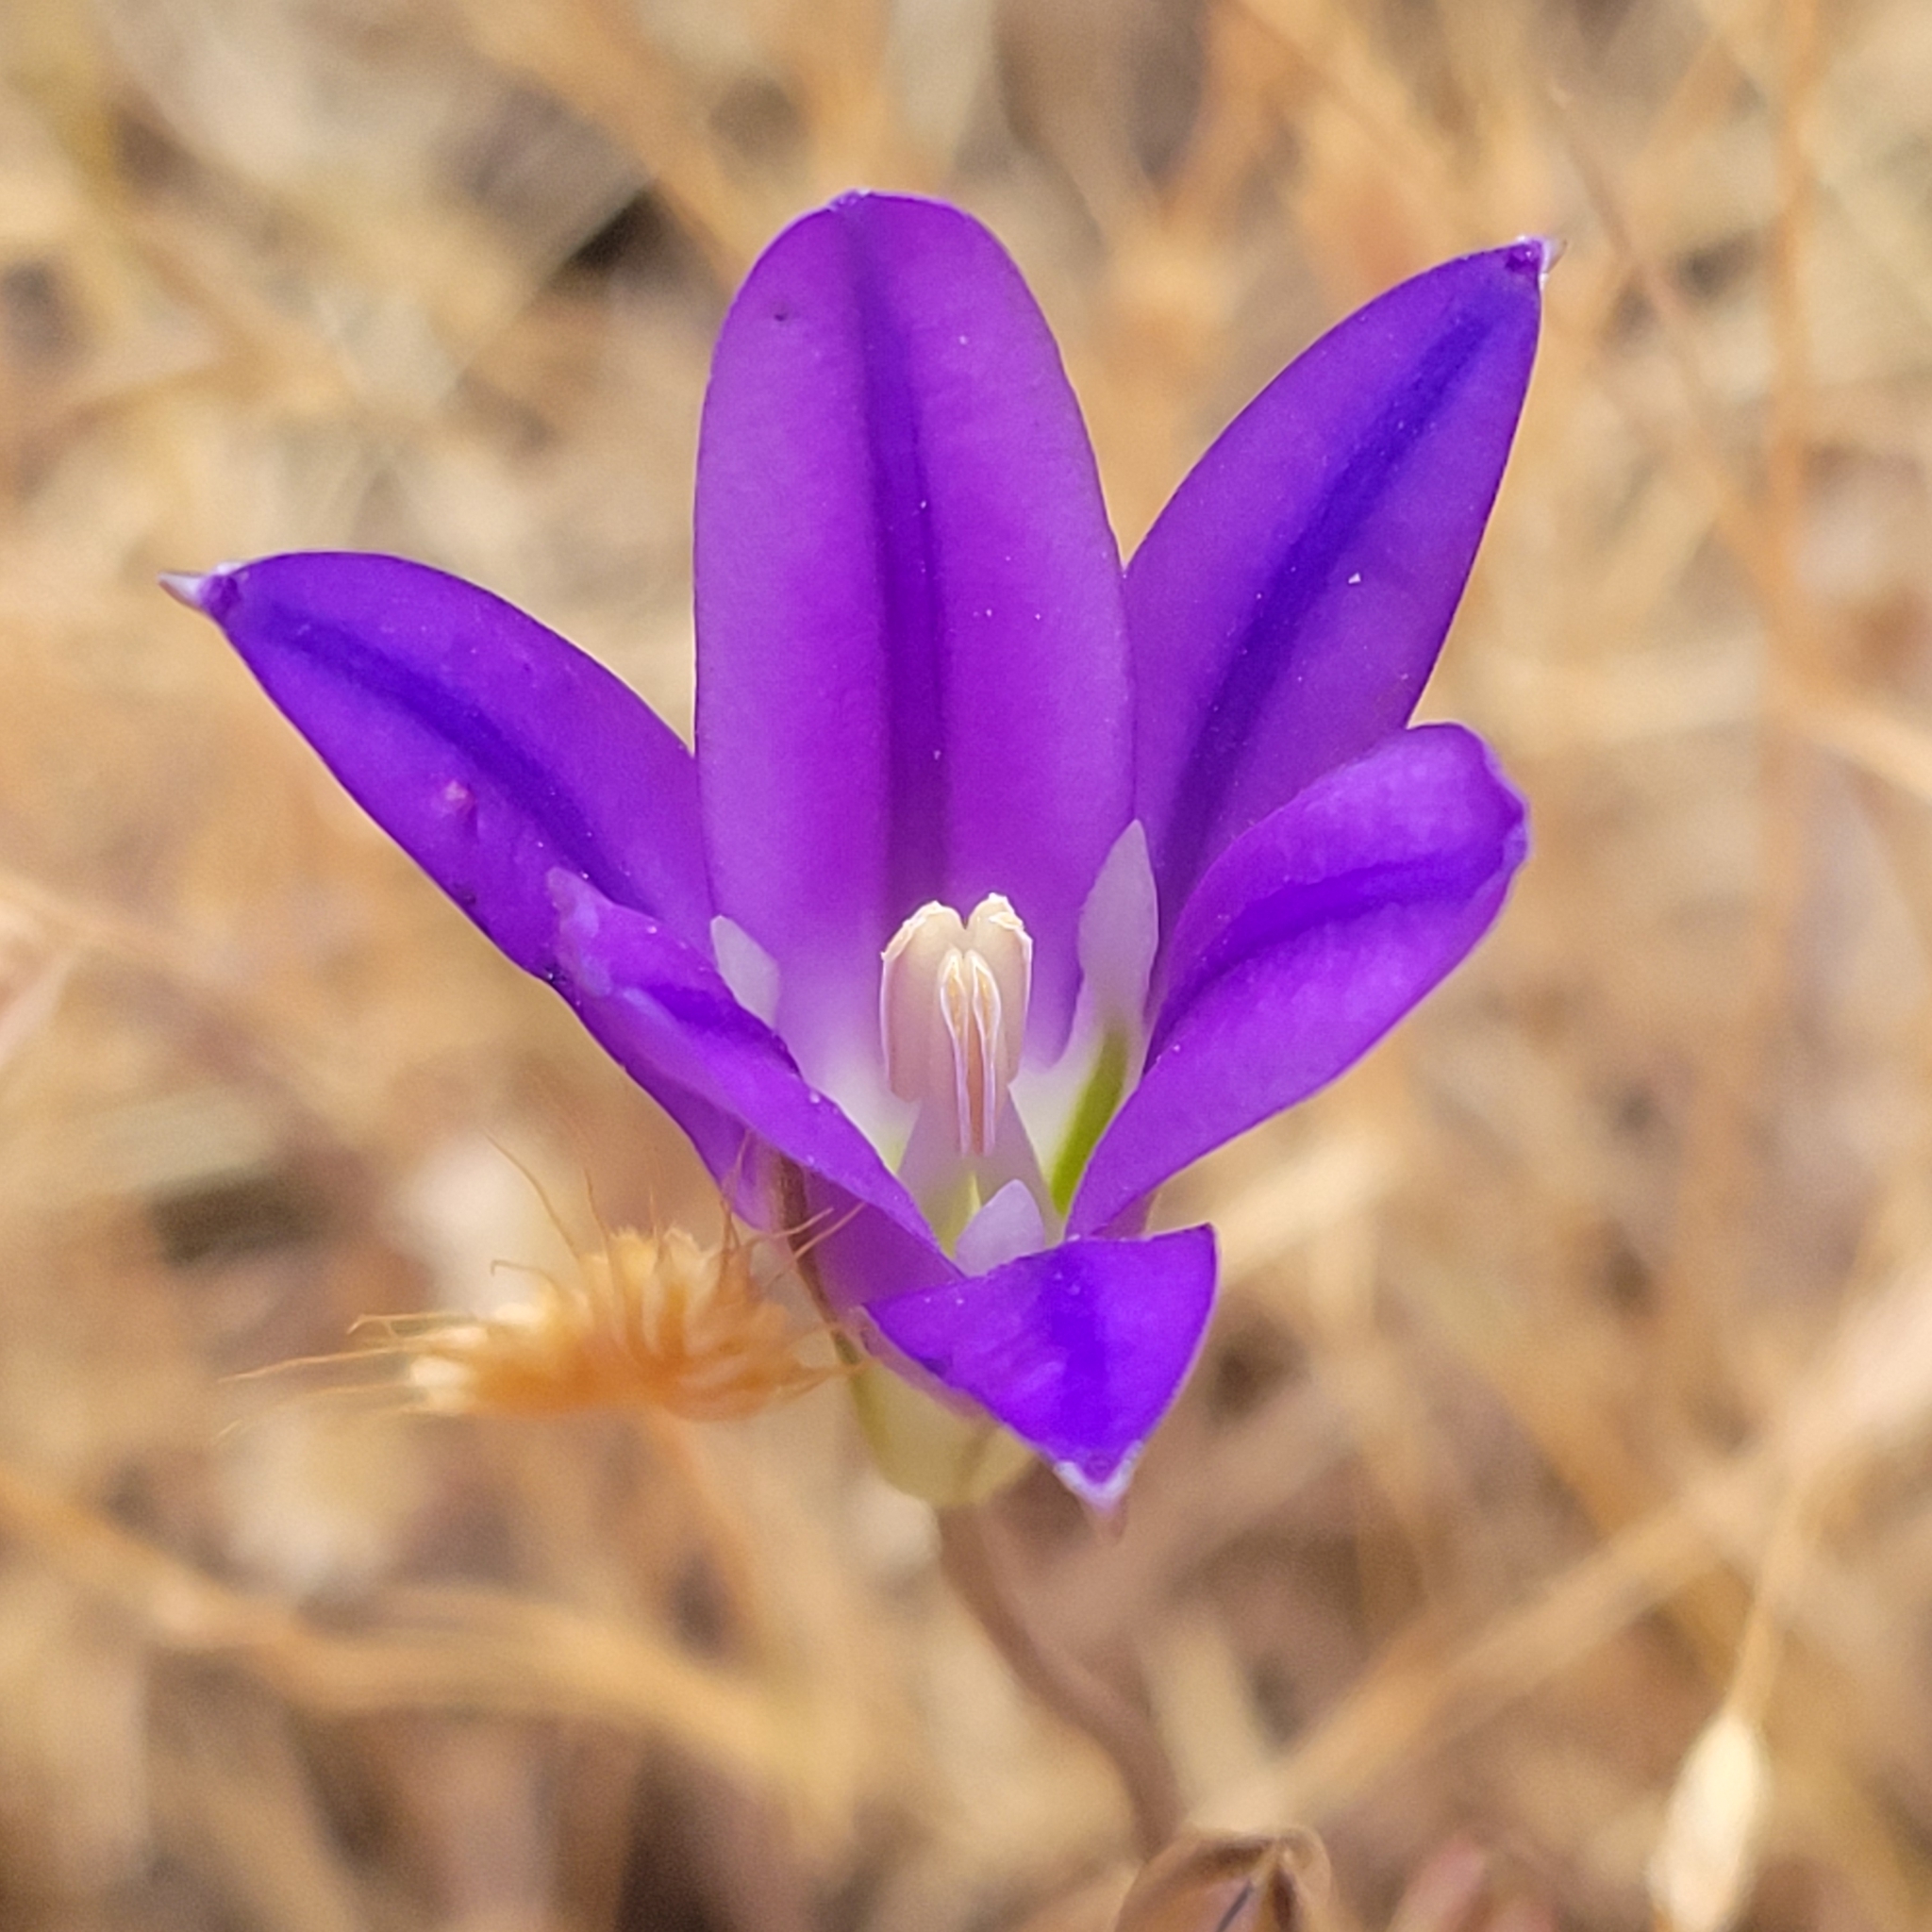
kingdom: Plantae
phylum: Tracheophyta
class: Liliopsida
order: Asparagales
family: Asparagaceae
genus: Brodiaea
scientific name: Brodiaea elegans
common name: Elegant cluster-lily
